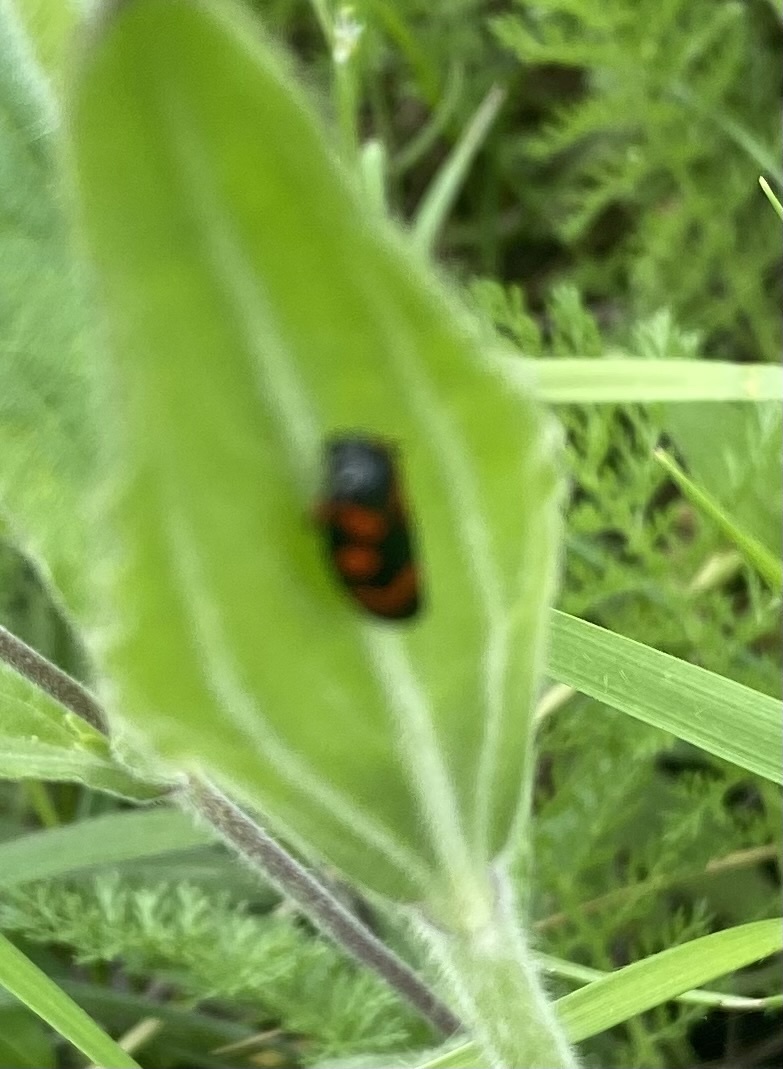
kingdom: Animalia
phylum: Arthropoda
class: Insecta
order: Hemiptera
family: Cercopidae
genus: Cercopis
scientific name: Cercopis intermedia
